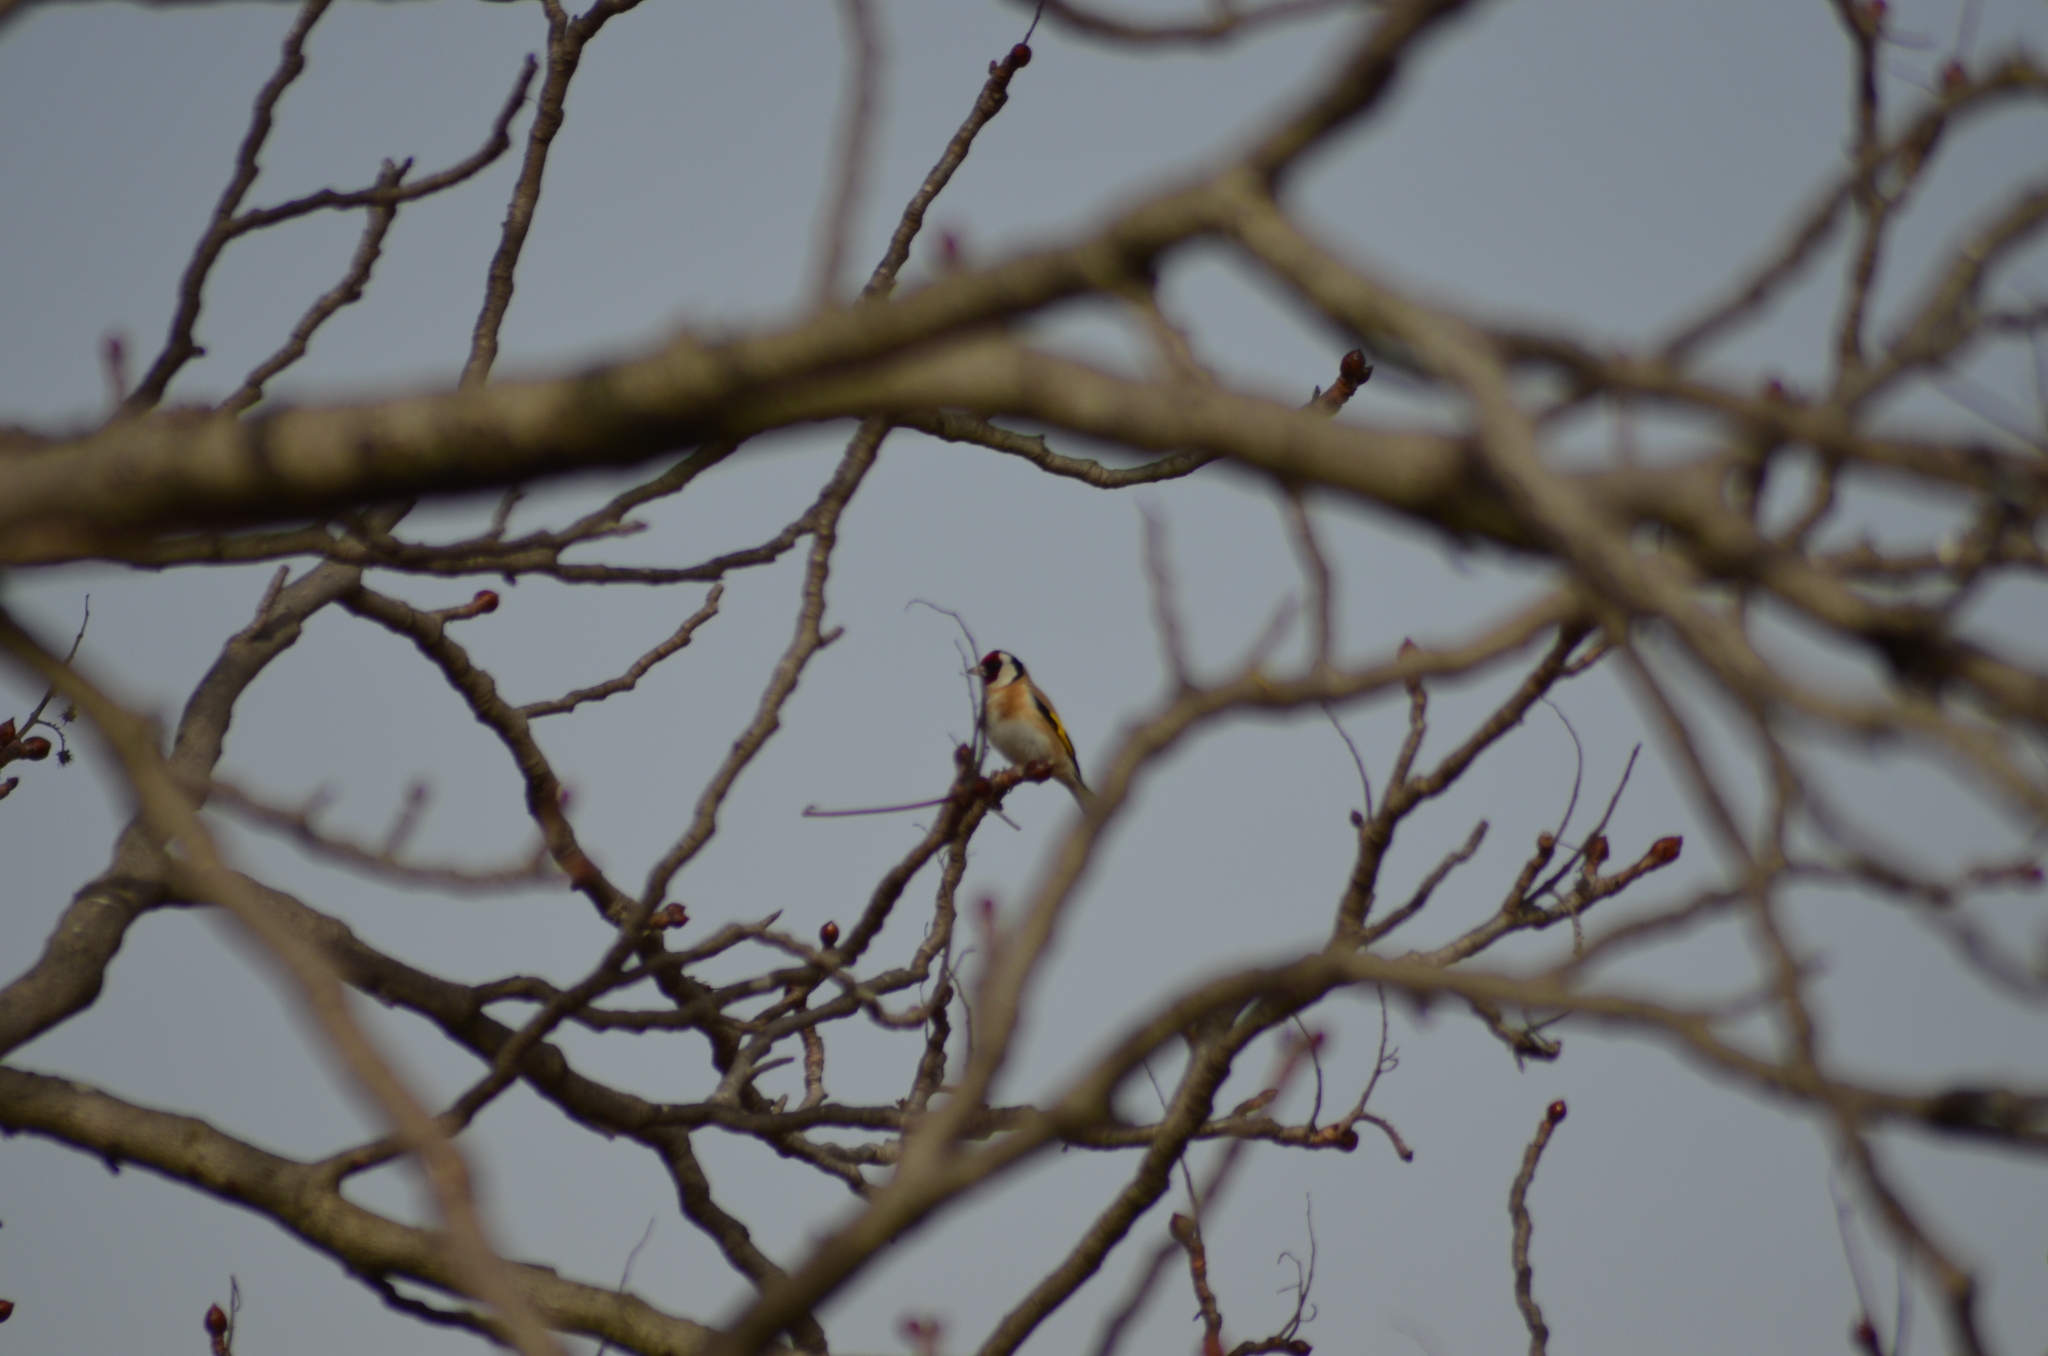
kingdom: Animalia
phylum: Chordata
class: Aves
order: Passeriformes
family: Fringillidae
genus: Carduelis
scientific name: Carduelis carduelis
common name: European goldfinch
